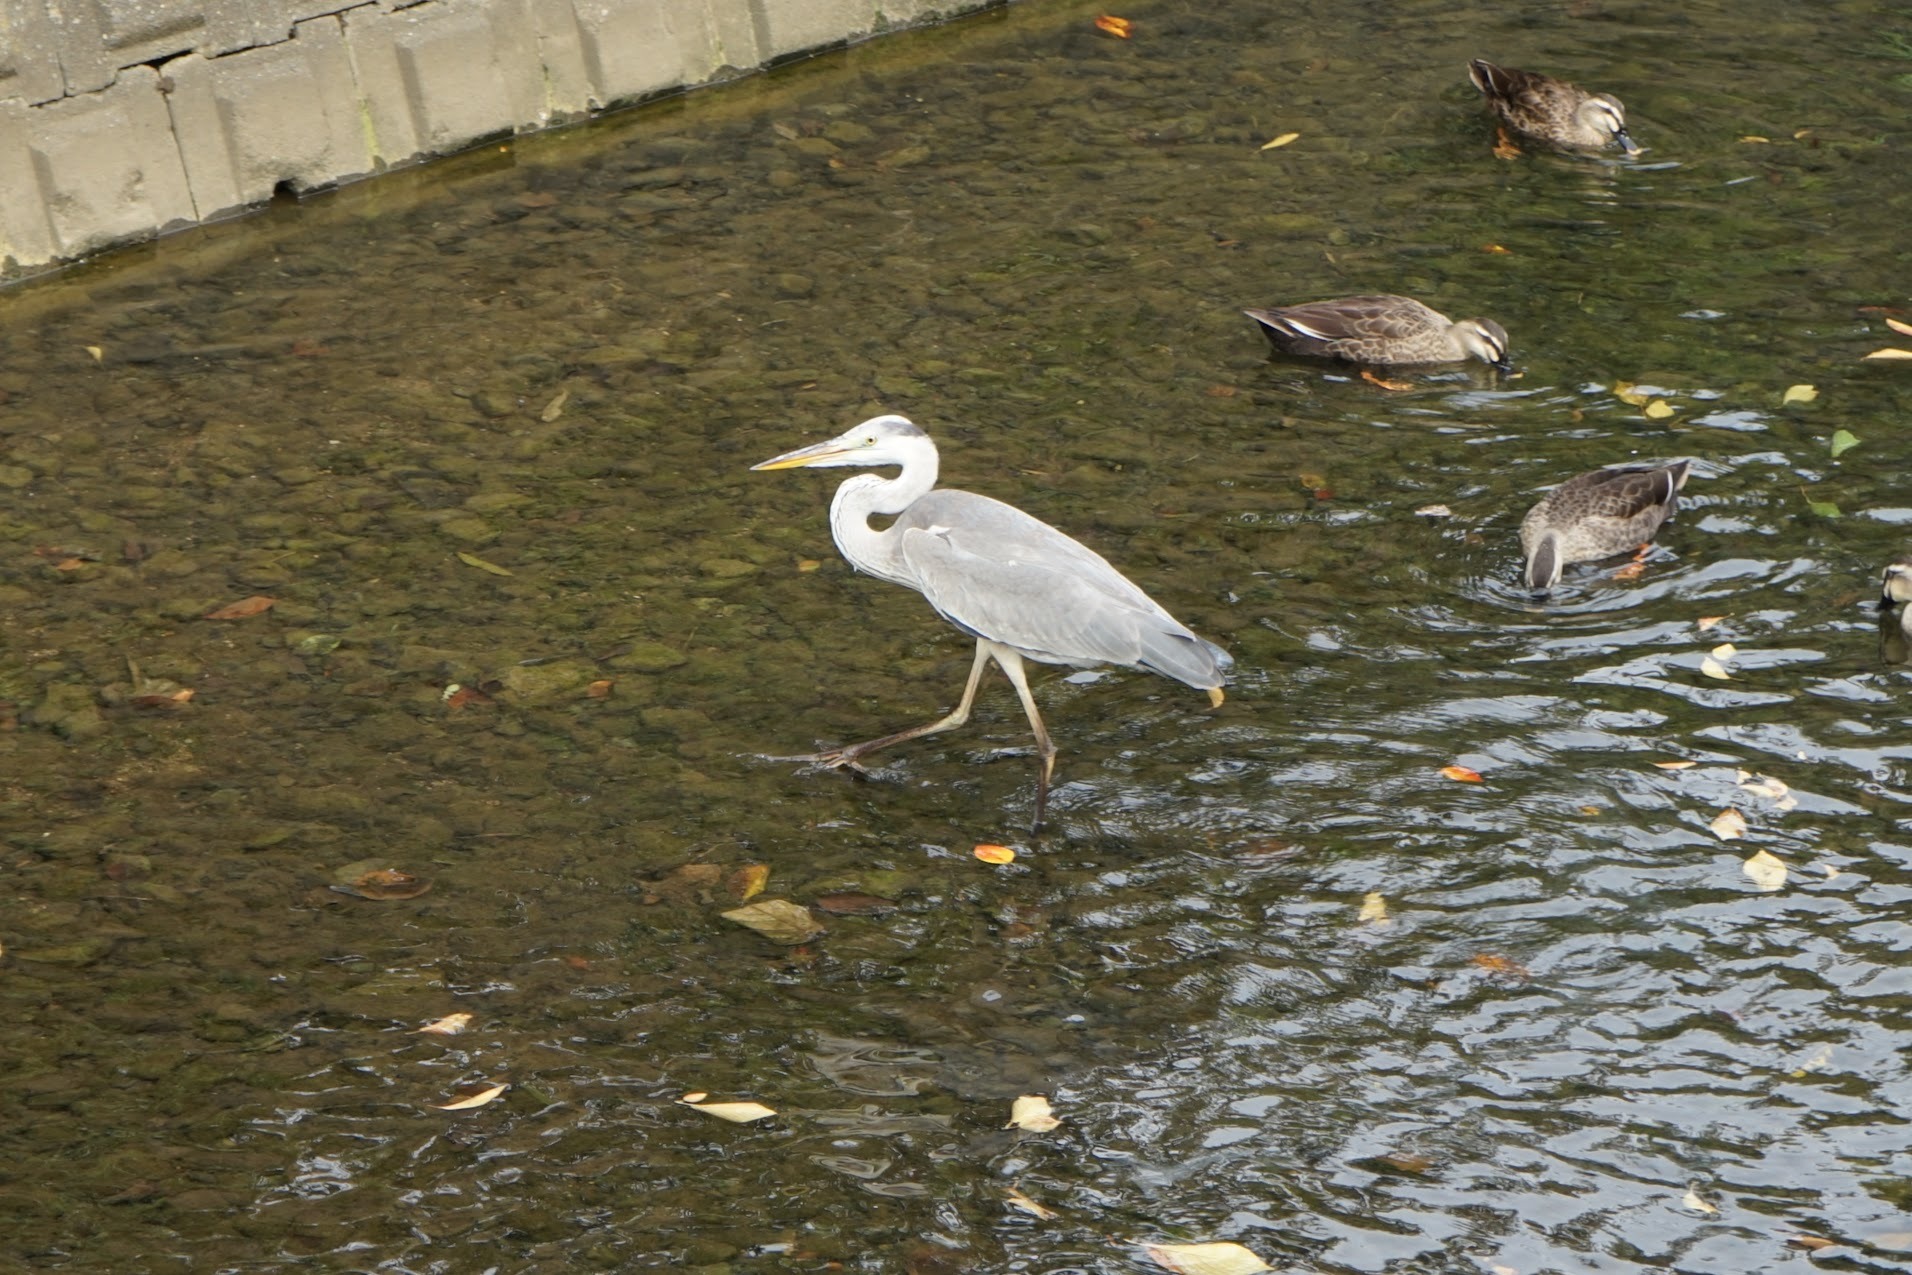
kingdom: Animalia
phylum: Chordata
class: Aves
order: Pelecaniformes
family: Ardeidae
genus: Ardea
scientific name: Ardea cinerea
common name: Grey heron
